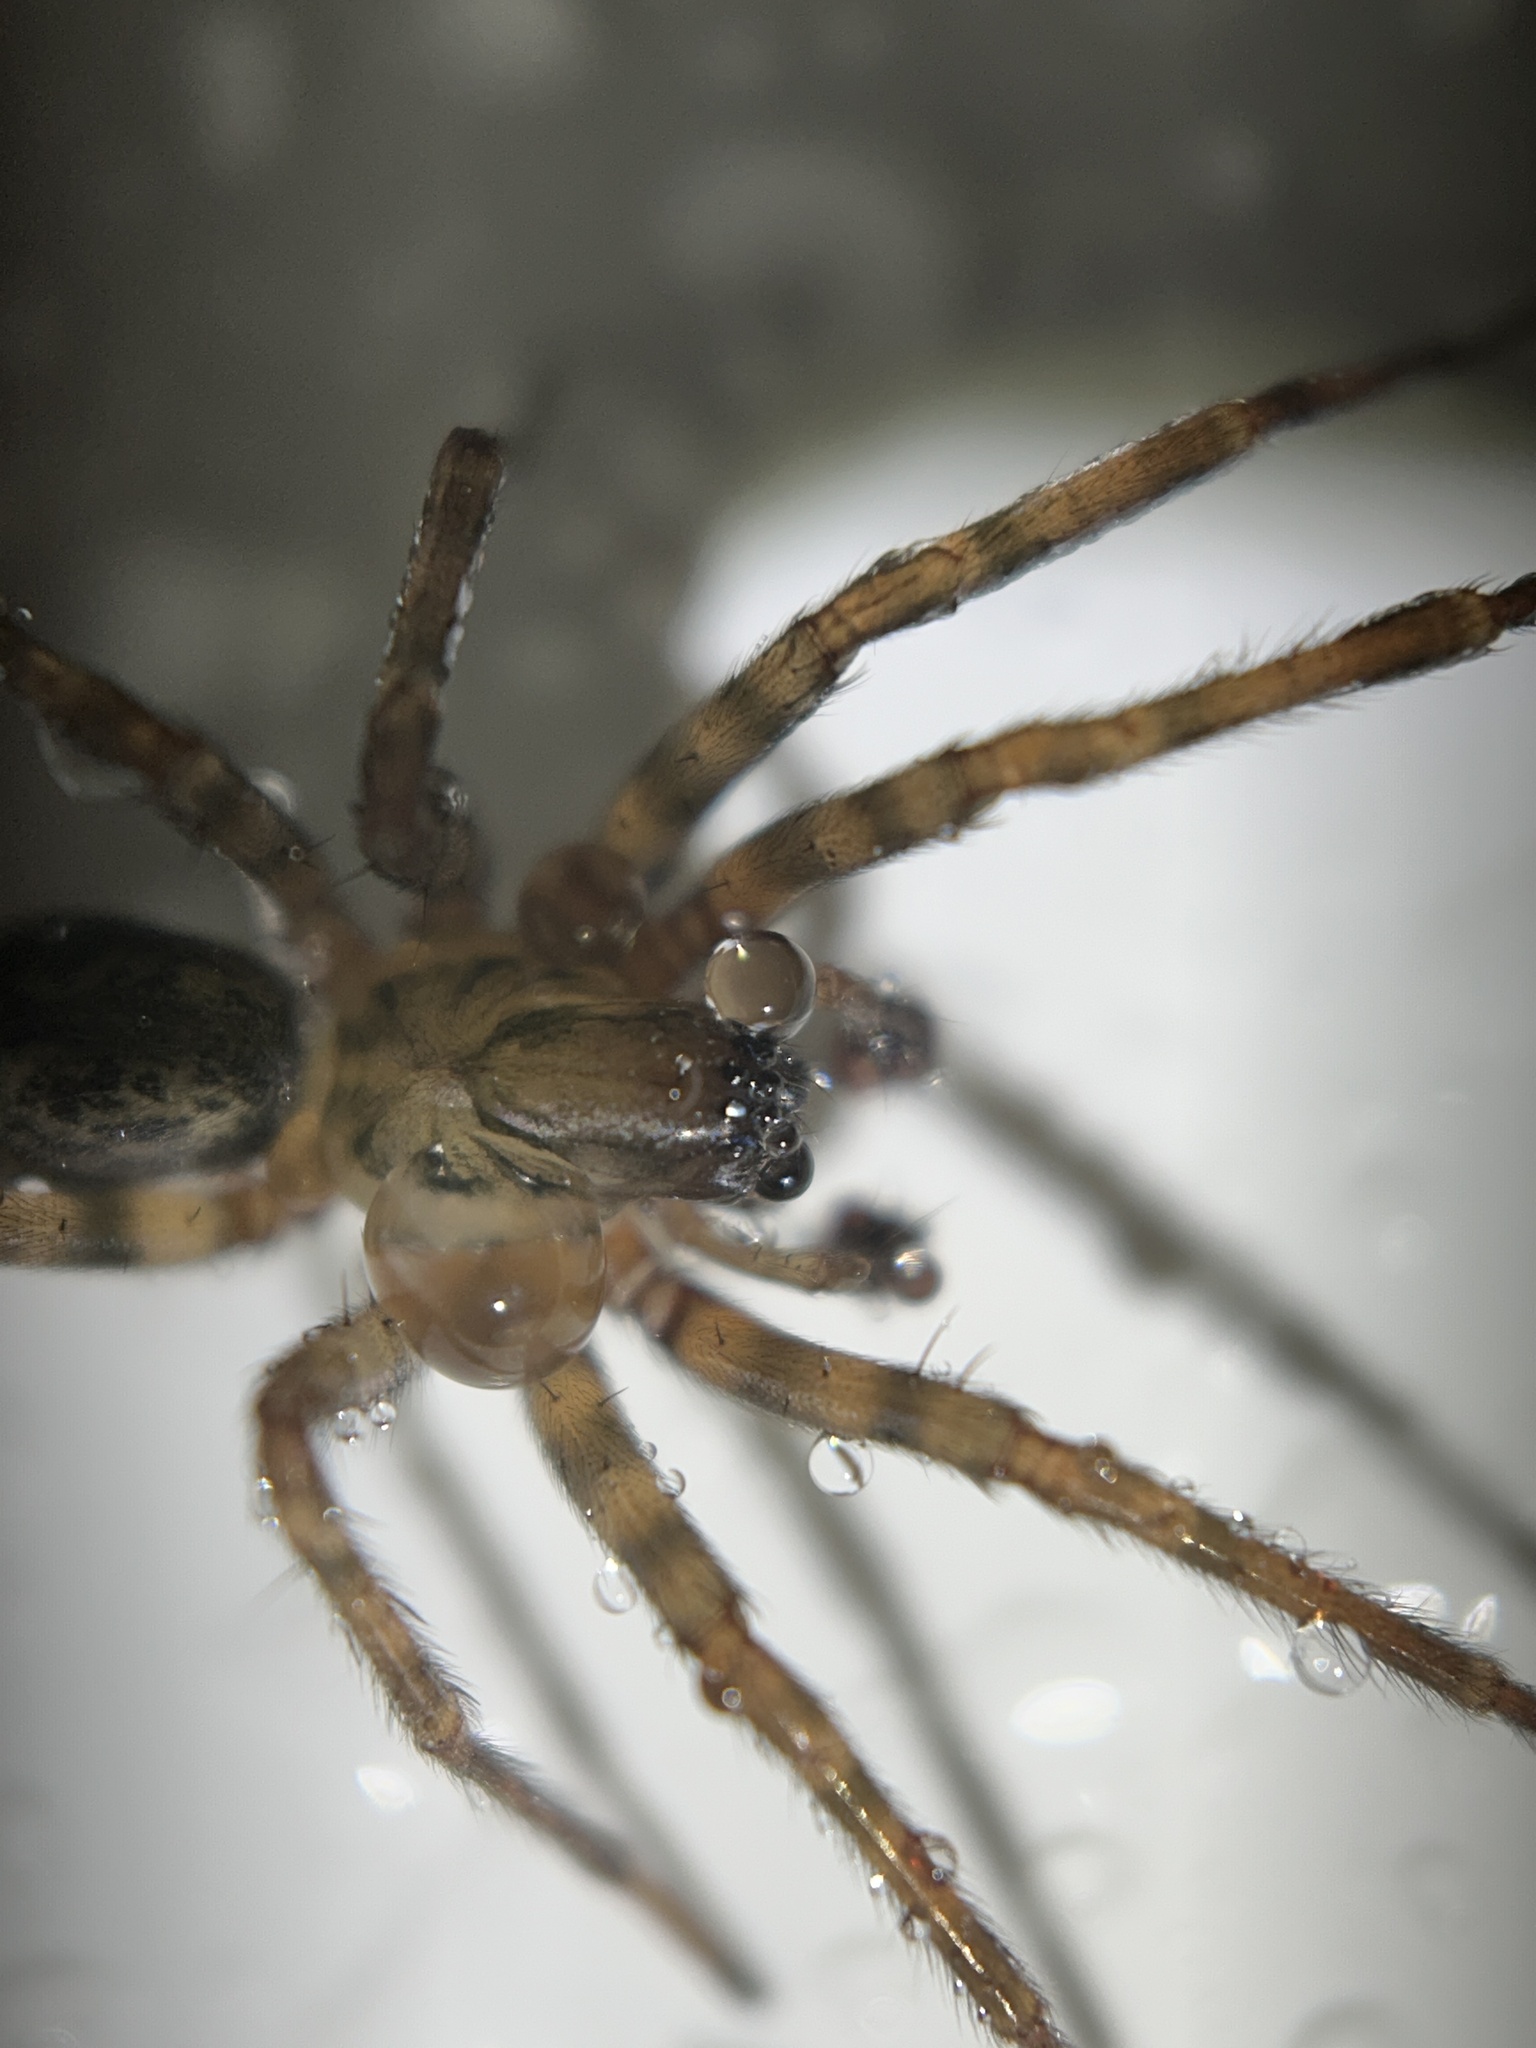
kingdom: Animalia
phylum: Arthropoda
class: Arachnida
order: Araneae
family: Agelenidae
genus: Coras
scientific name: Coras
